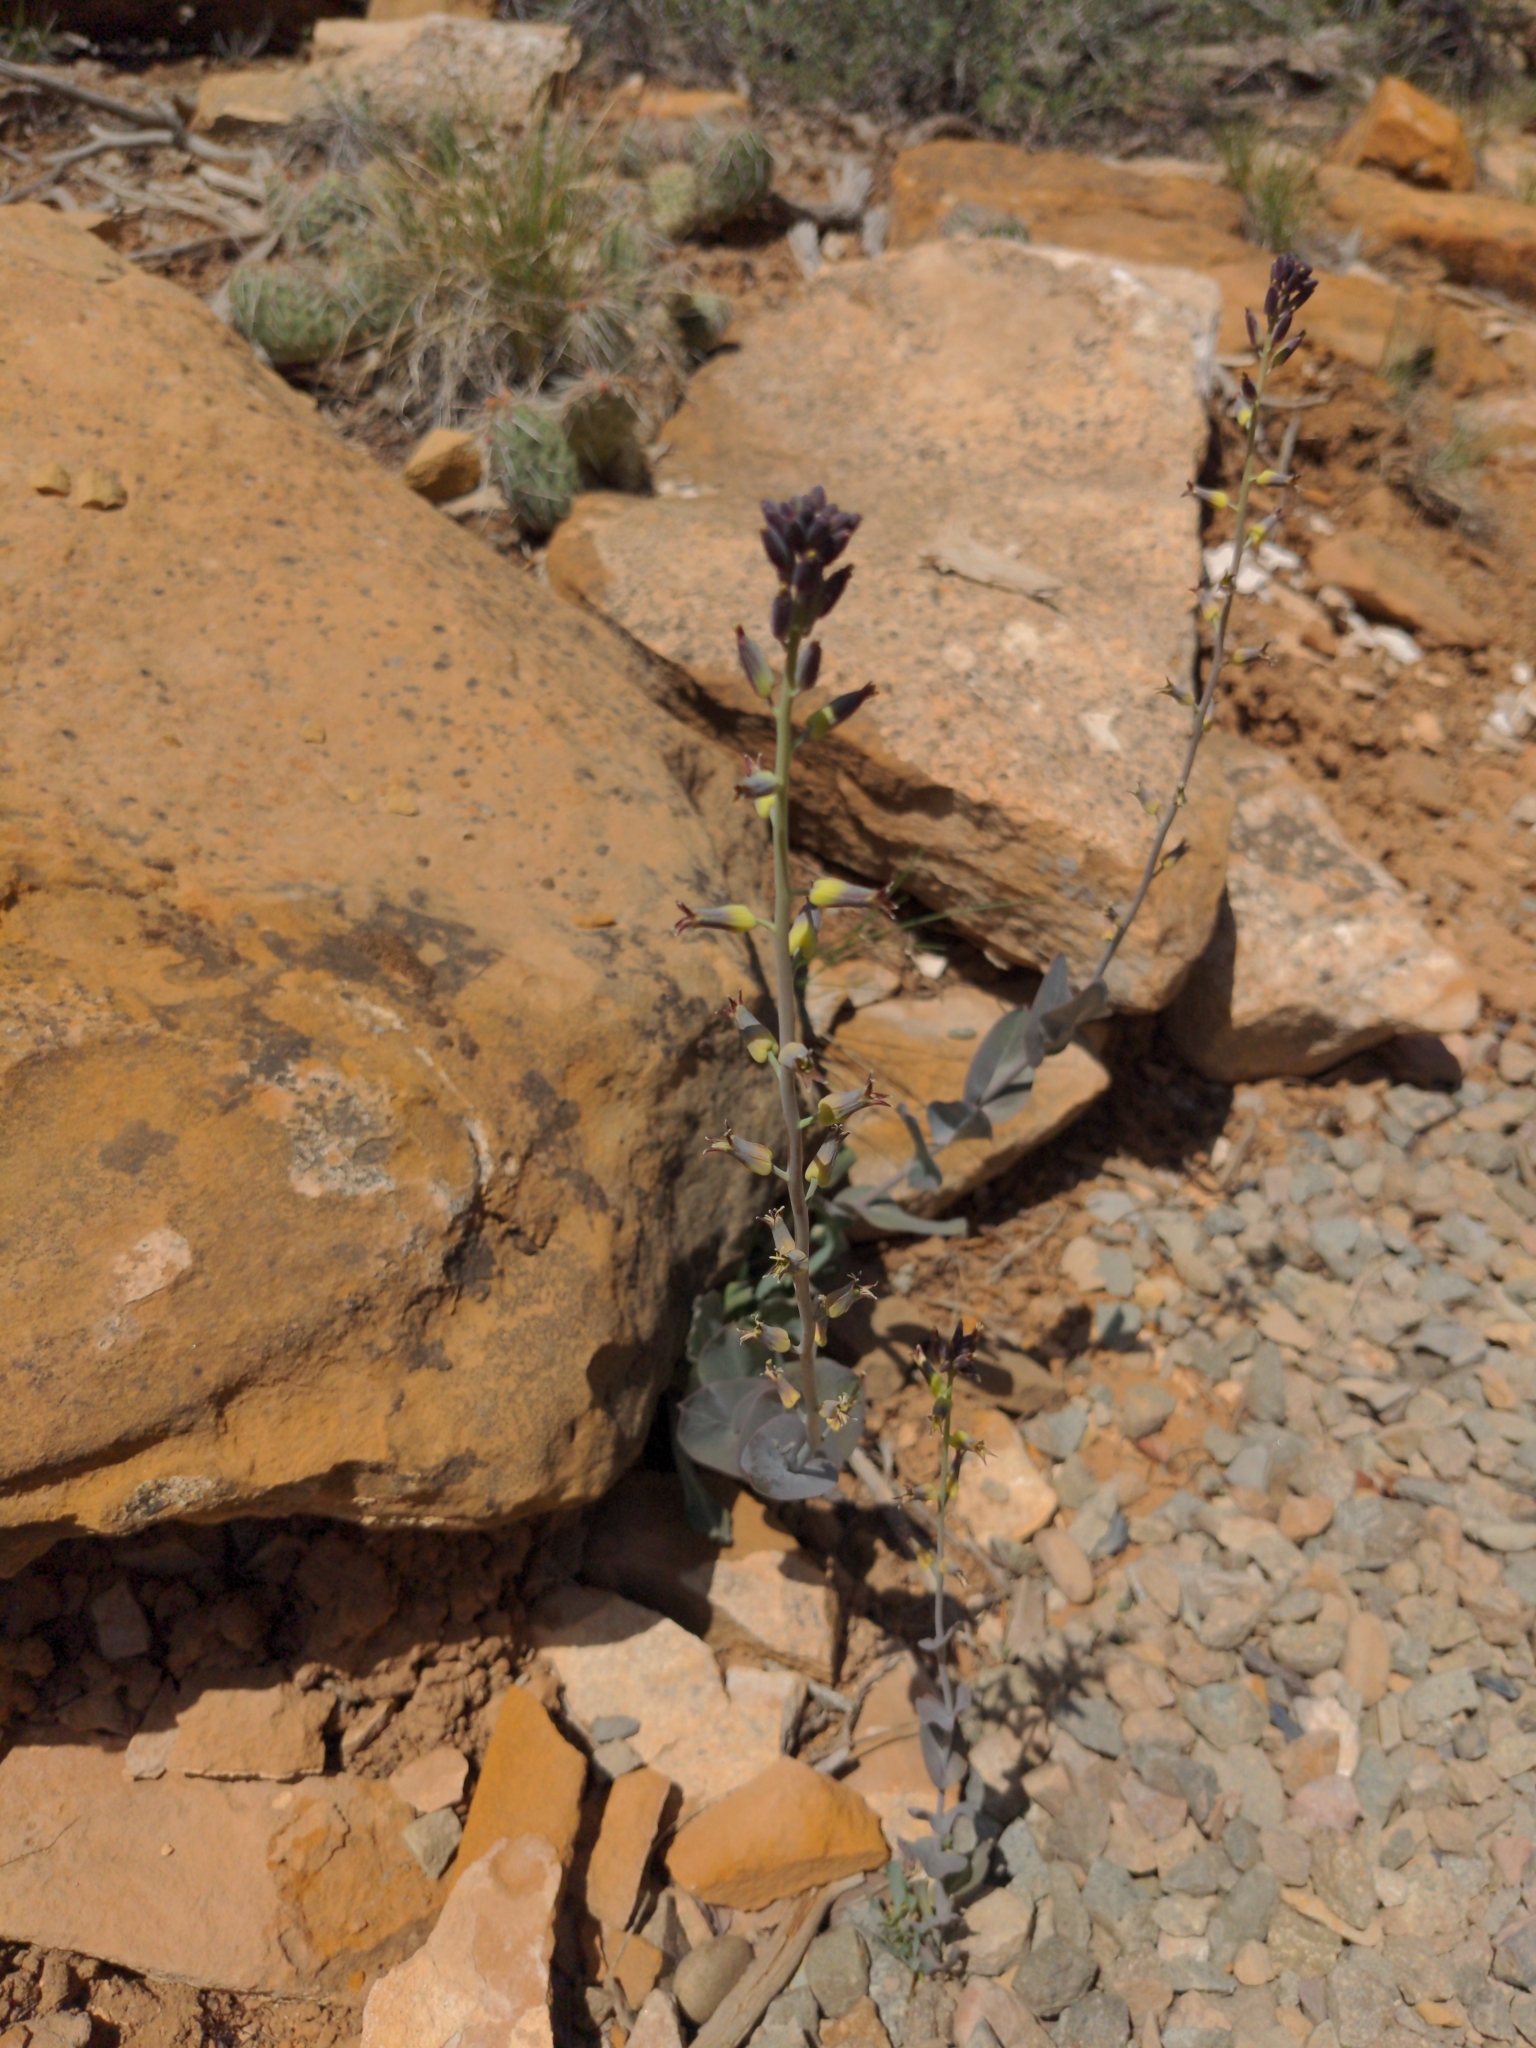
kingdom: Plantae
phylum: Tracheophyta
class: Magnoliopsida
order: Brassicales
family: Brassicaceae
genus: Streptanthus
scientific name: Streptanthus cordatus
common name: Heart-leaf jewel-flower
